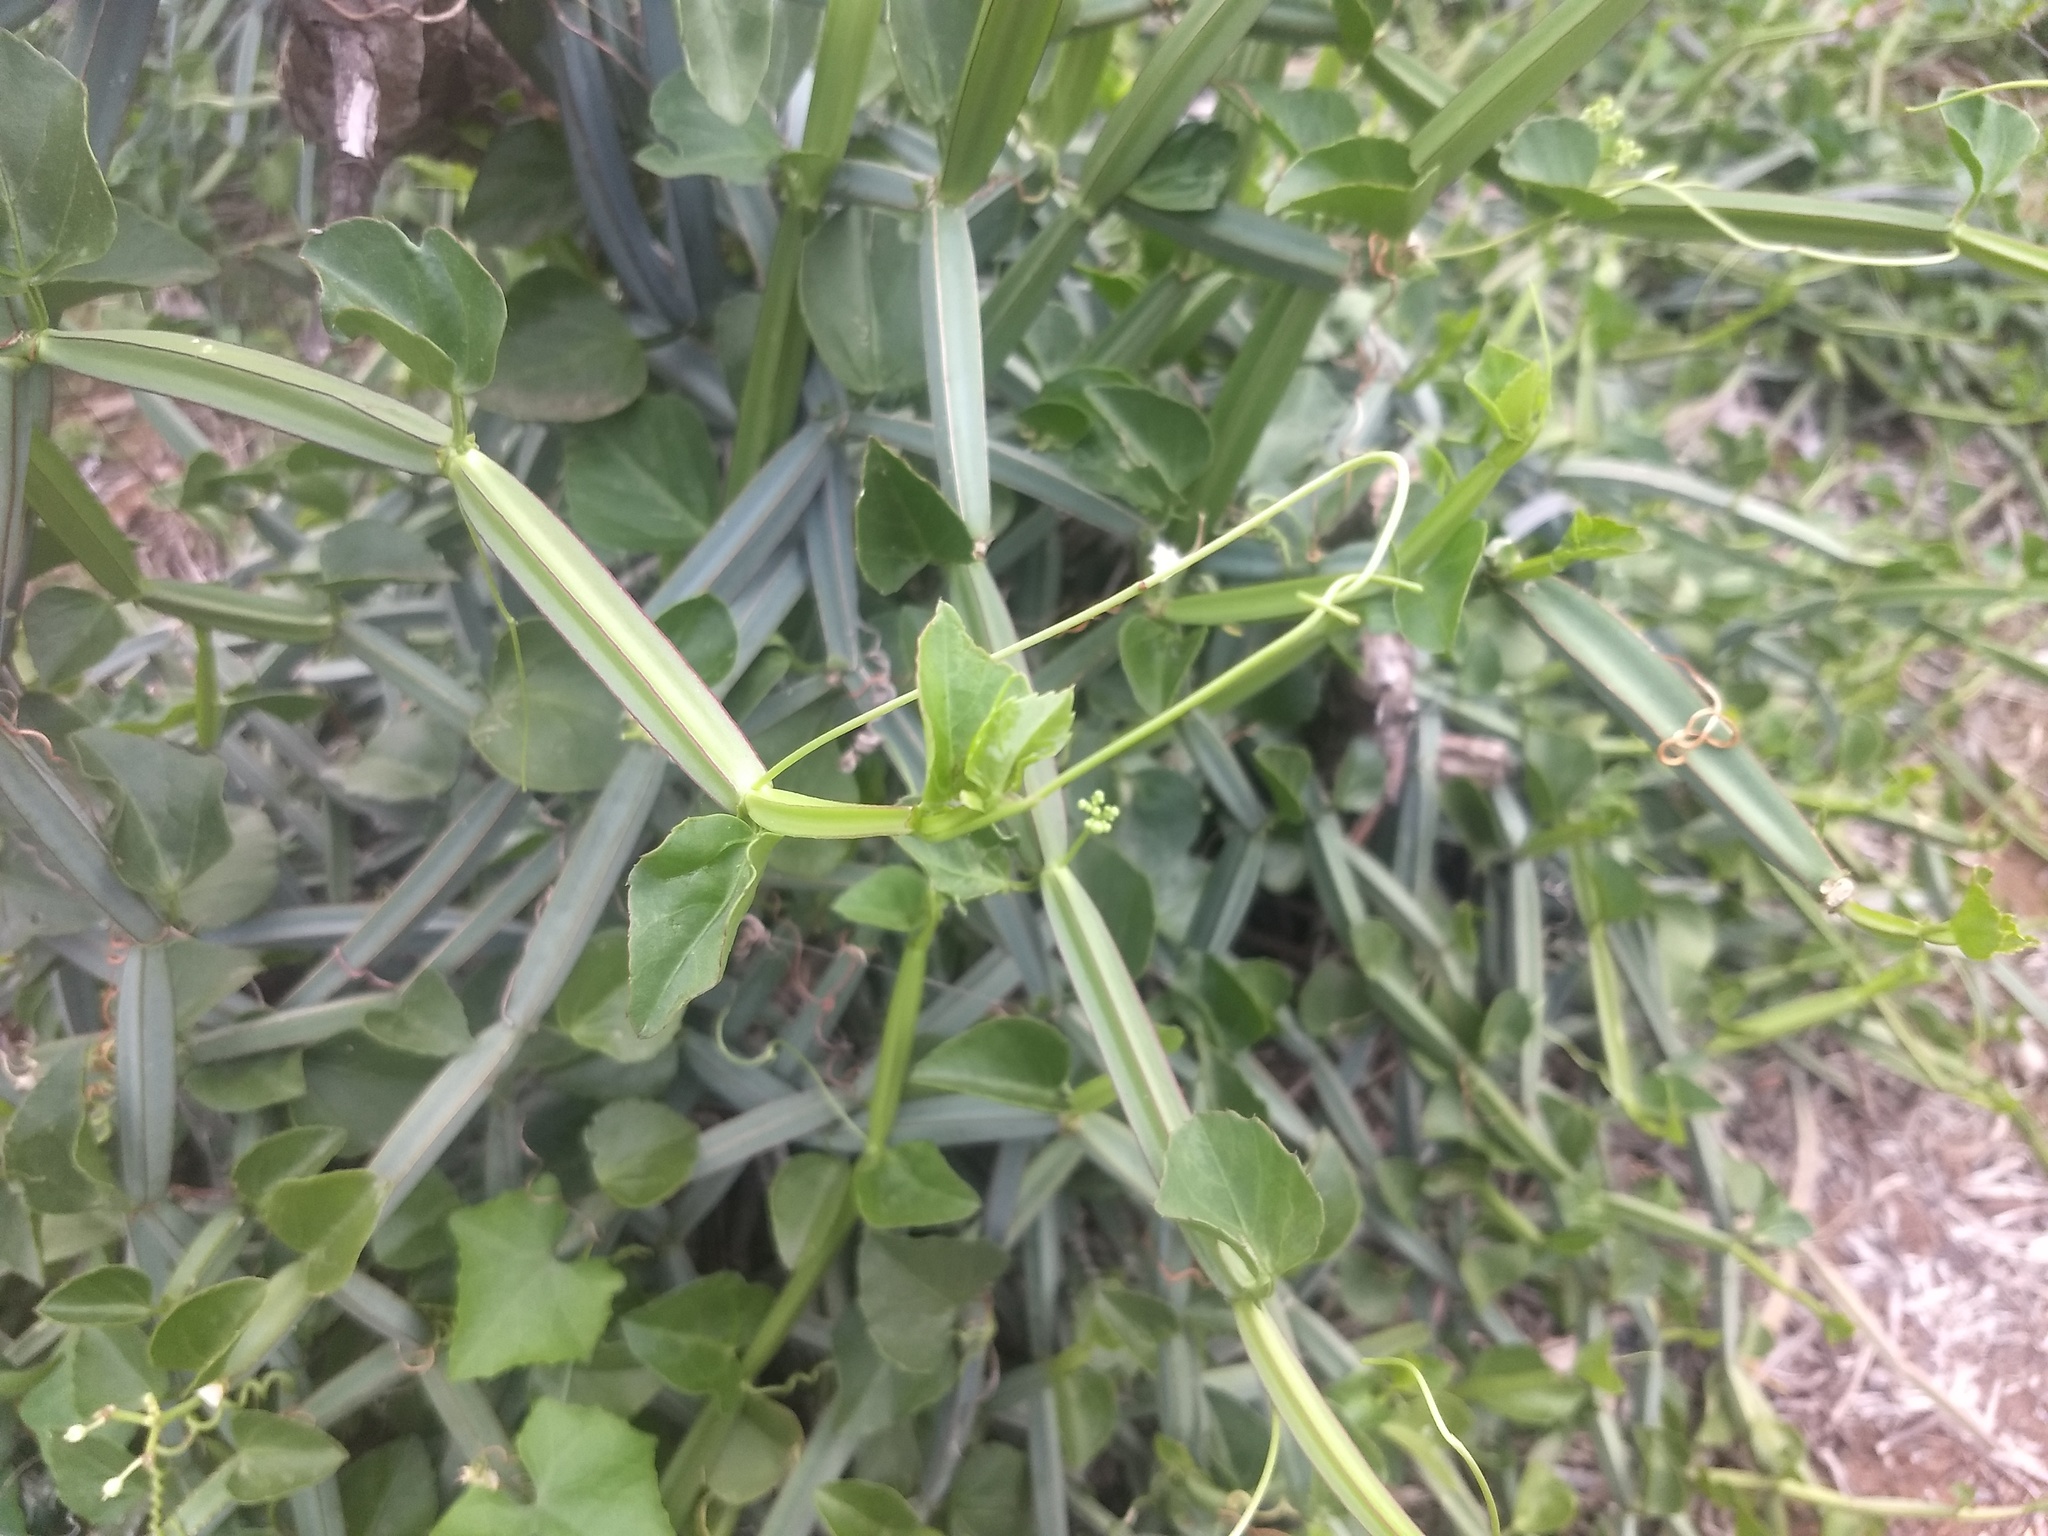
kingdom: Plantae
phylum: Tracheophyta
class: Magnoliopsida
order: Vitales
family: Vitaceae
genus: Cissus
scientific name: Cissus quadrangularis
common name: Veldt-grape
